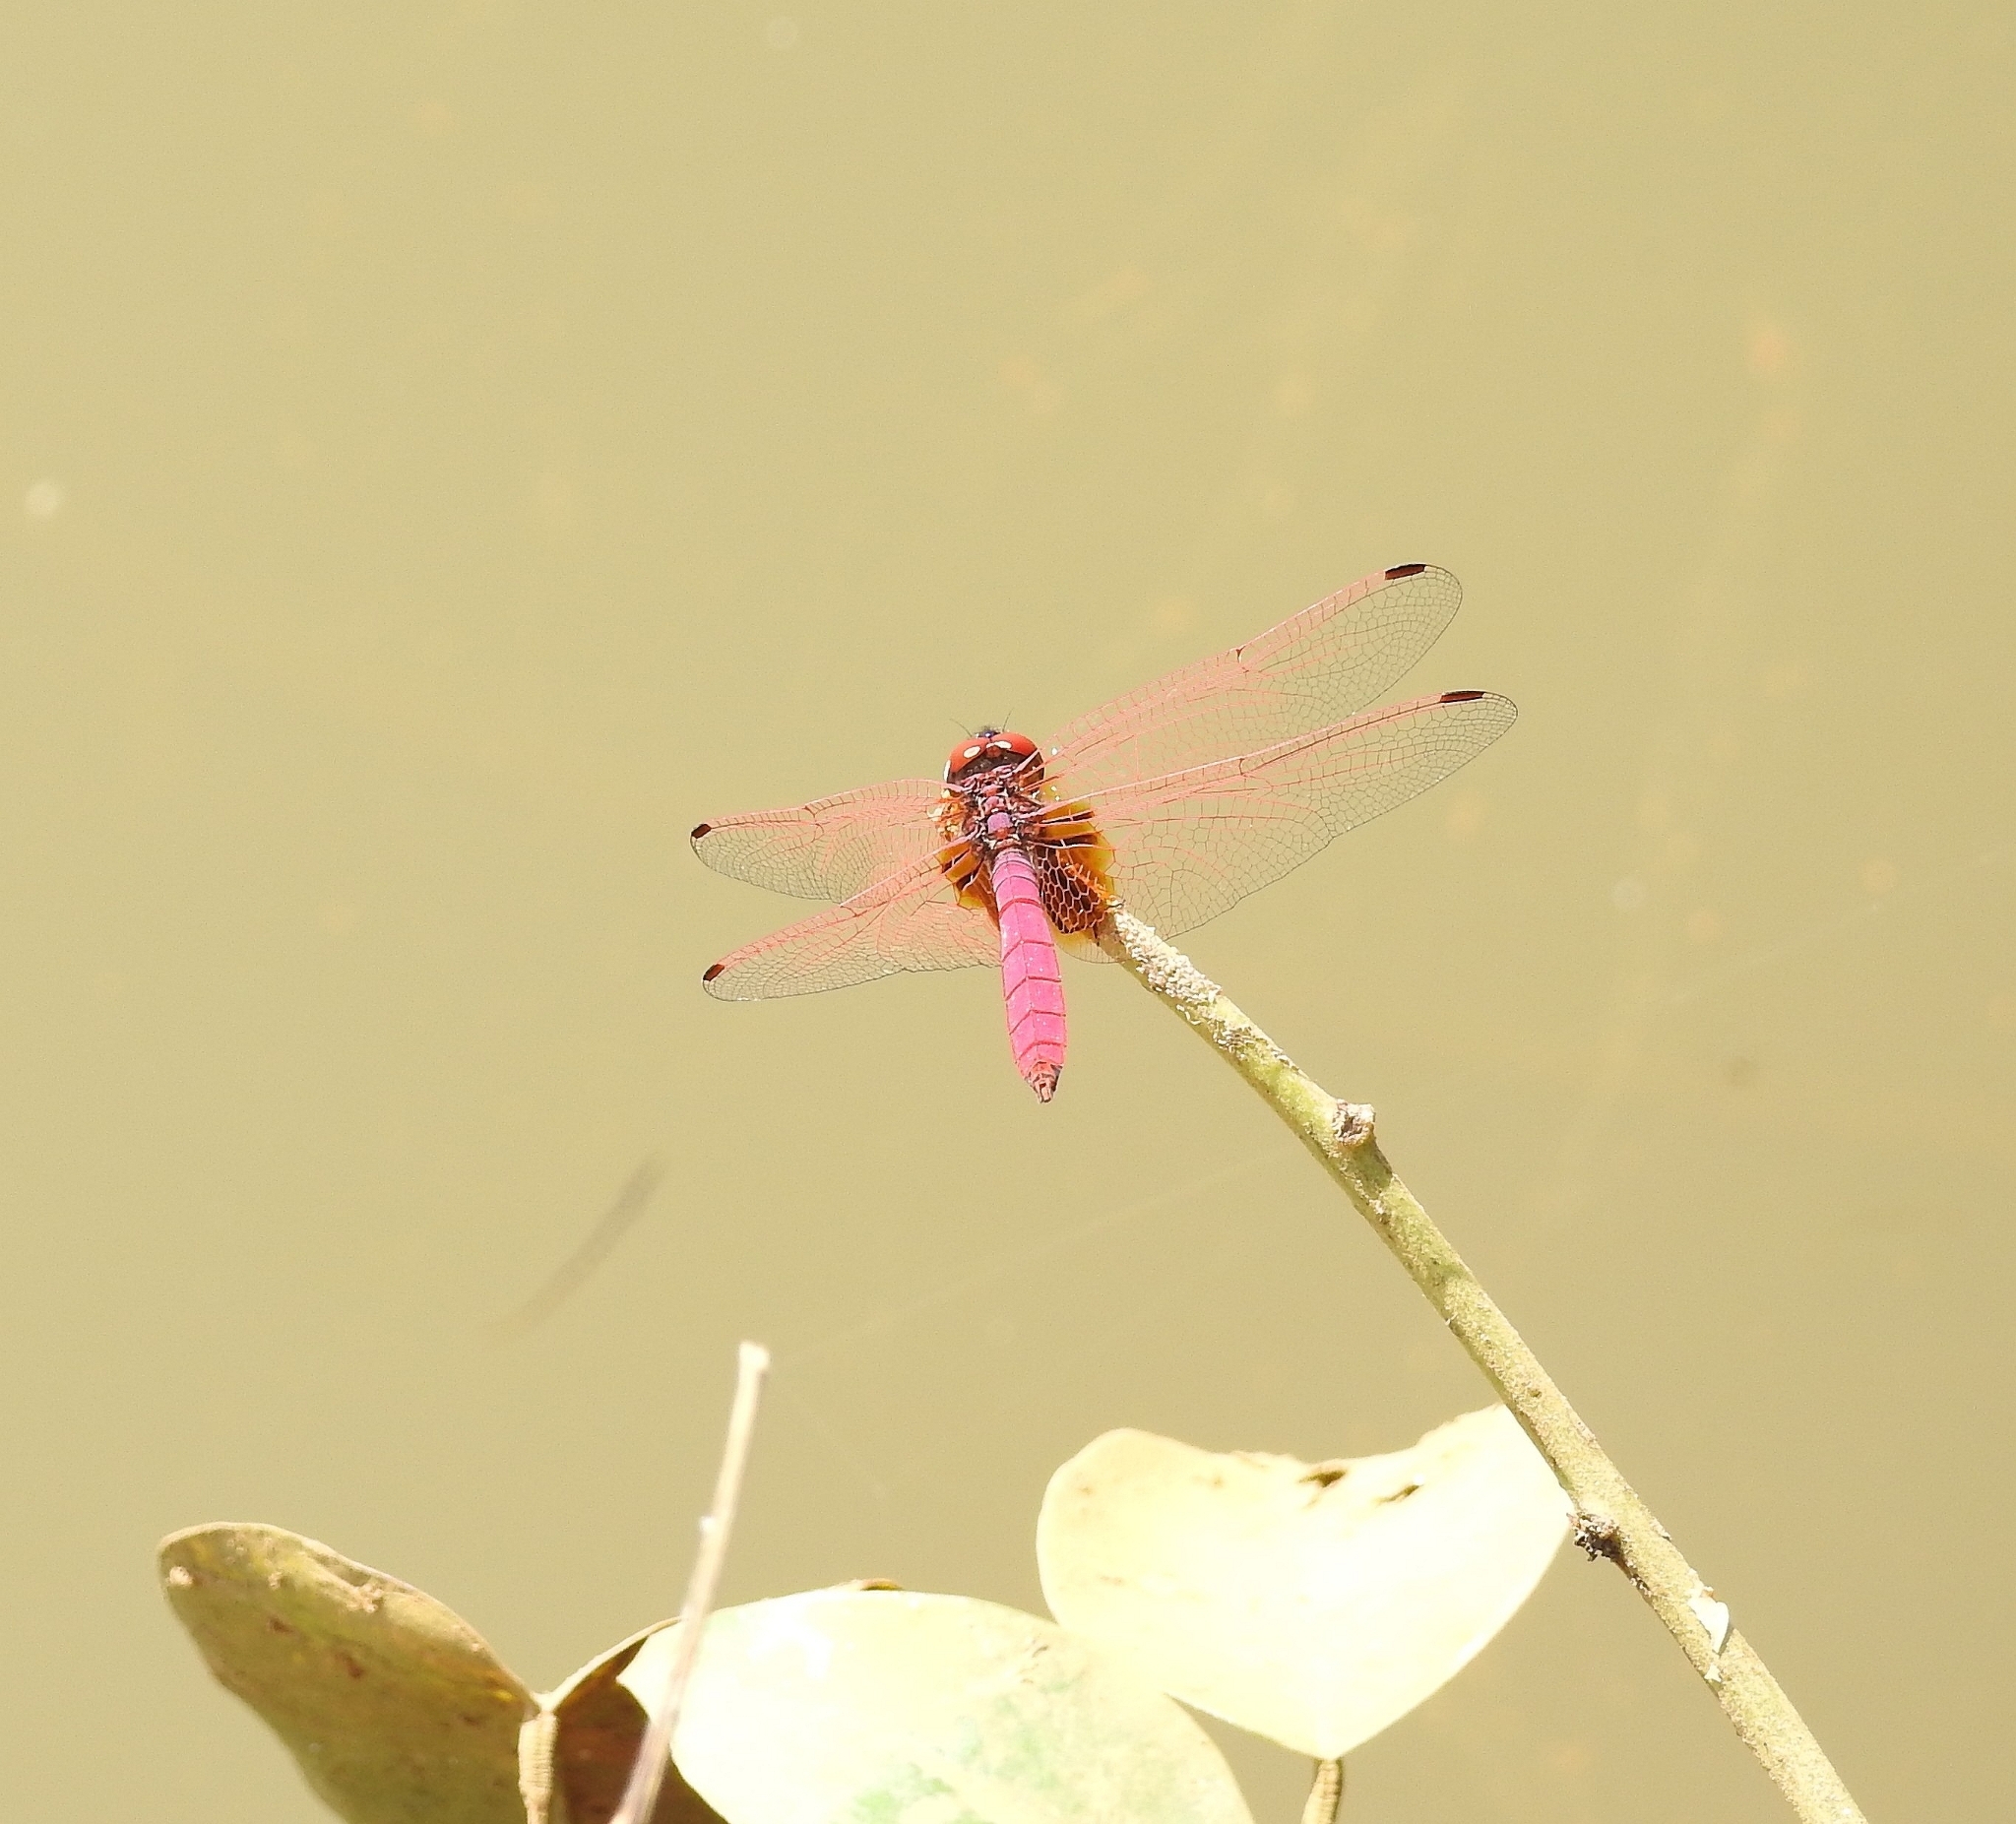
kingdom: Animalia
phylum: Arthropoda
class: Insecta
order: Odonata
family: Libellulidae
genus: Trithemis
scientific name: Trithemis aurora
